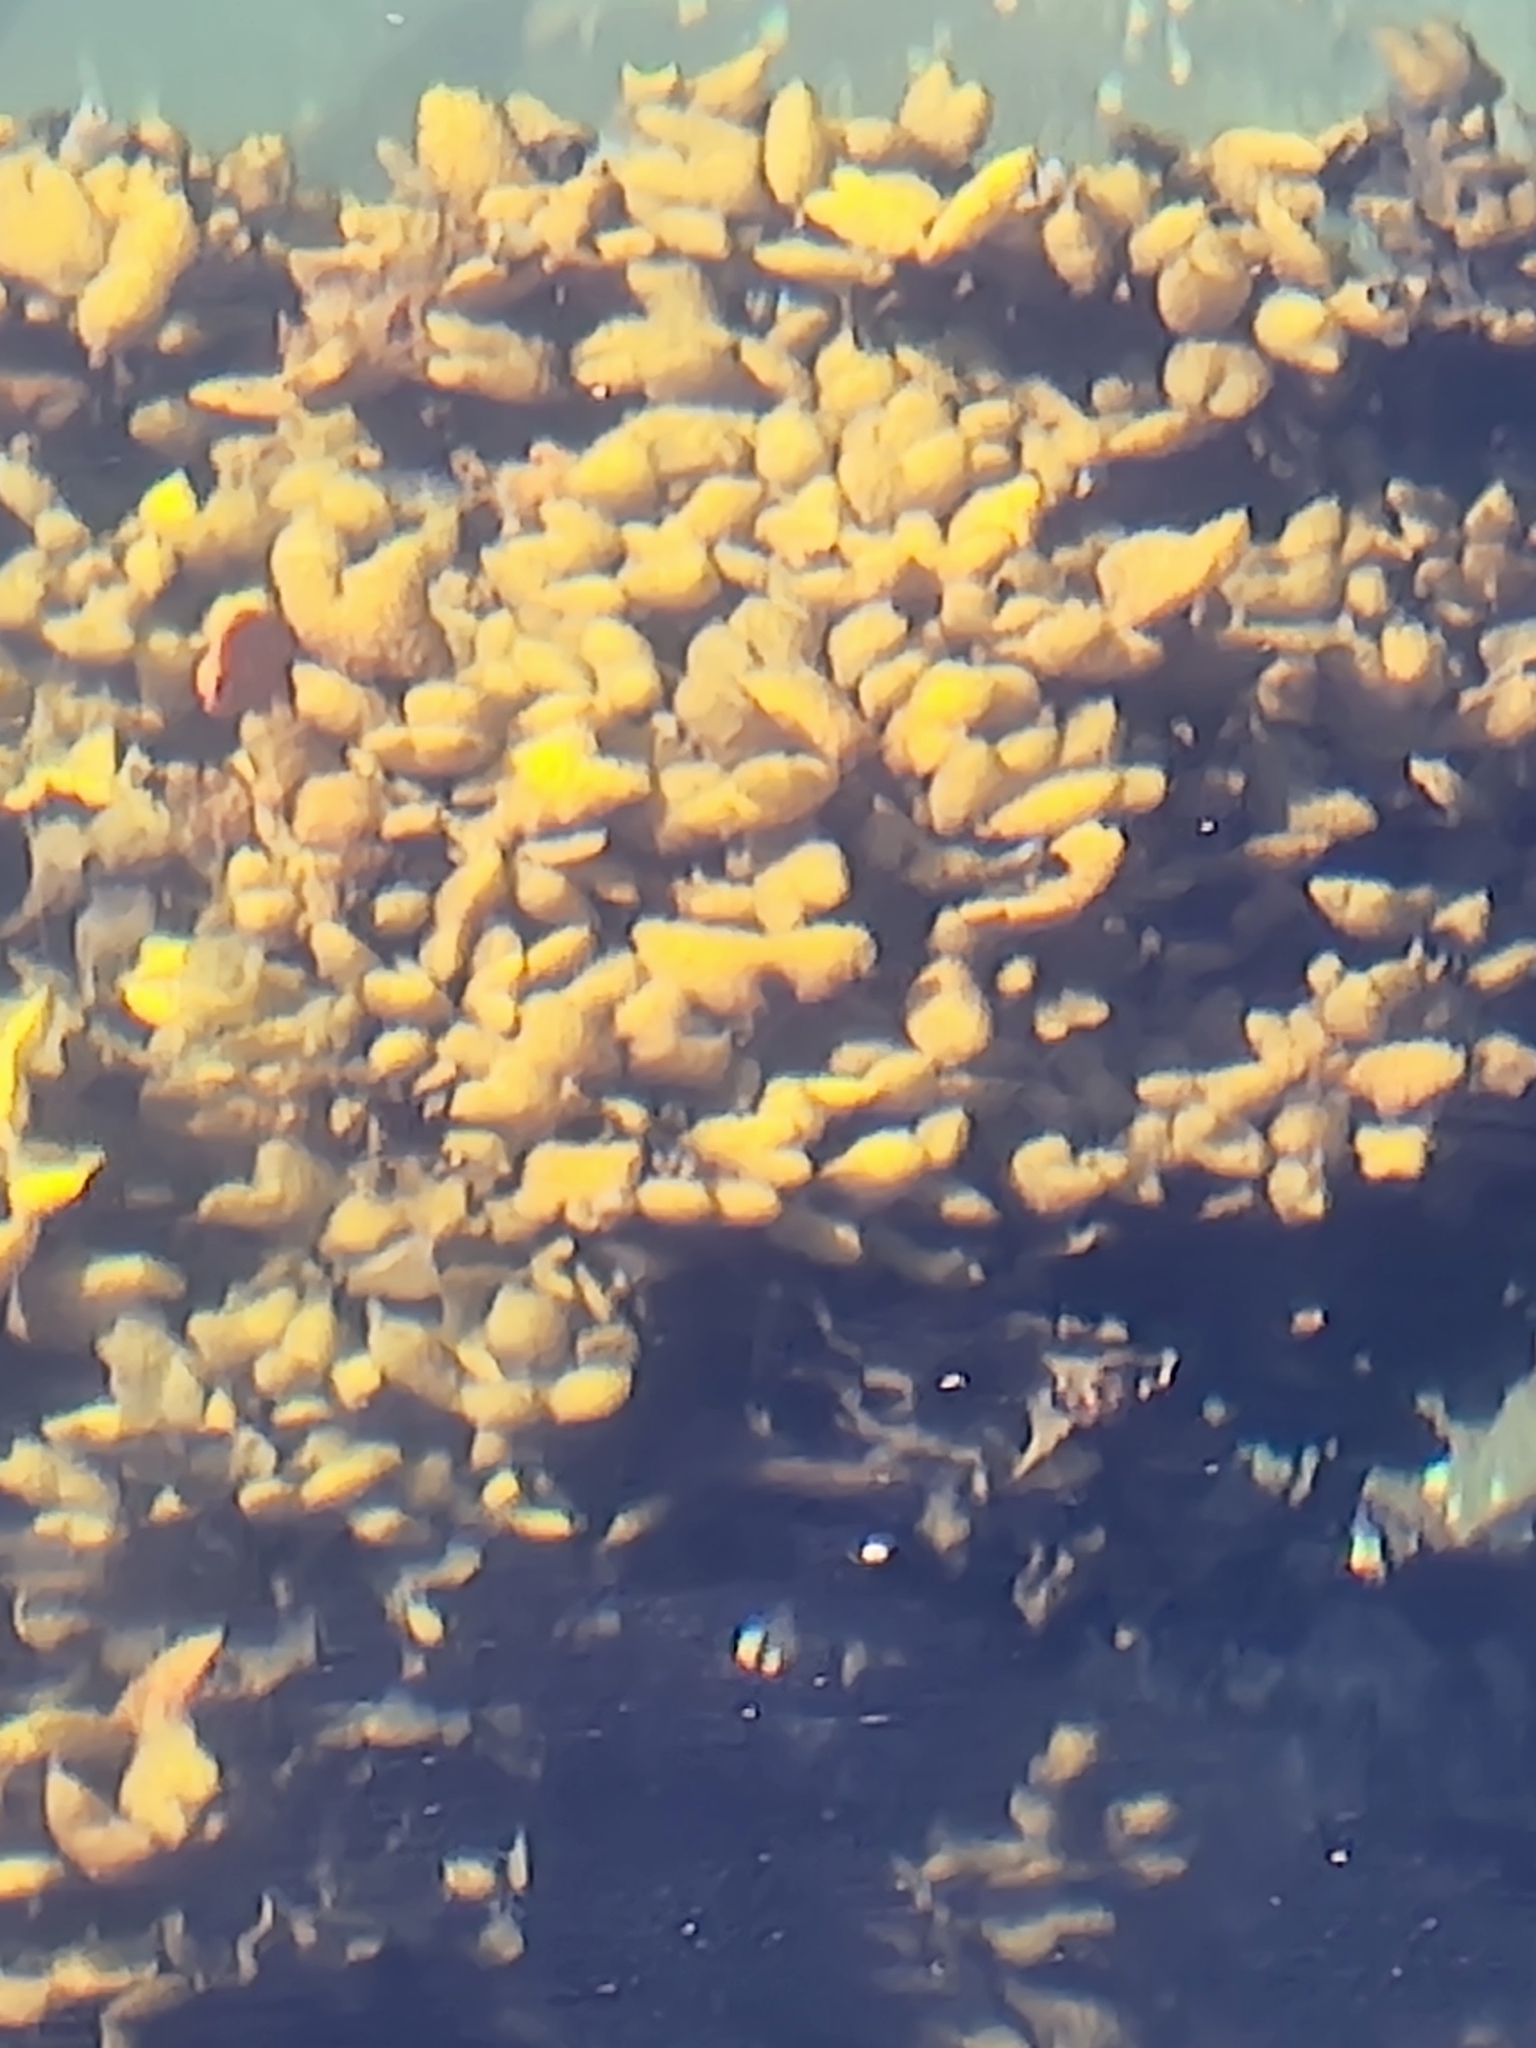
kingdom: Chromista
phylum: Ochrophyta
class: Phaeophyceae
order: Fucales
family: Fucaceae
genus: Fucus
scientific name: Fucus distichus
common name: Rockweed
